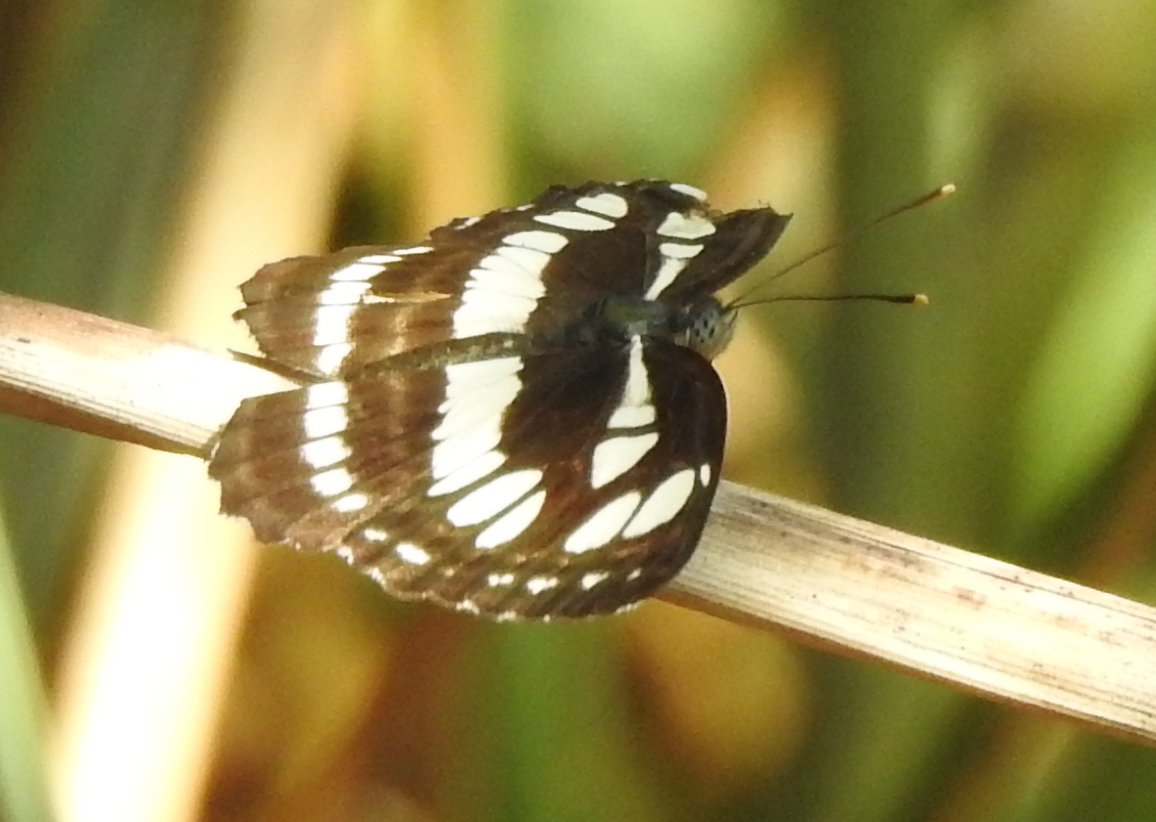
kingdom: Animalia
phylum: Arthropoda
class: Insecta
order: Lepidoptera
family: Nymphalidae
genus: Neptis
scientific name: Neptis hylas
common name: Common sailer
